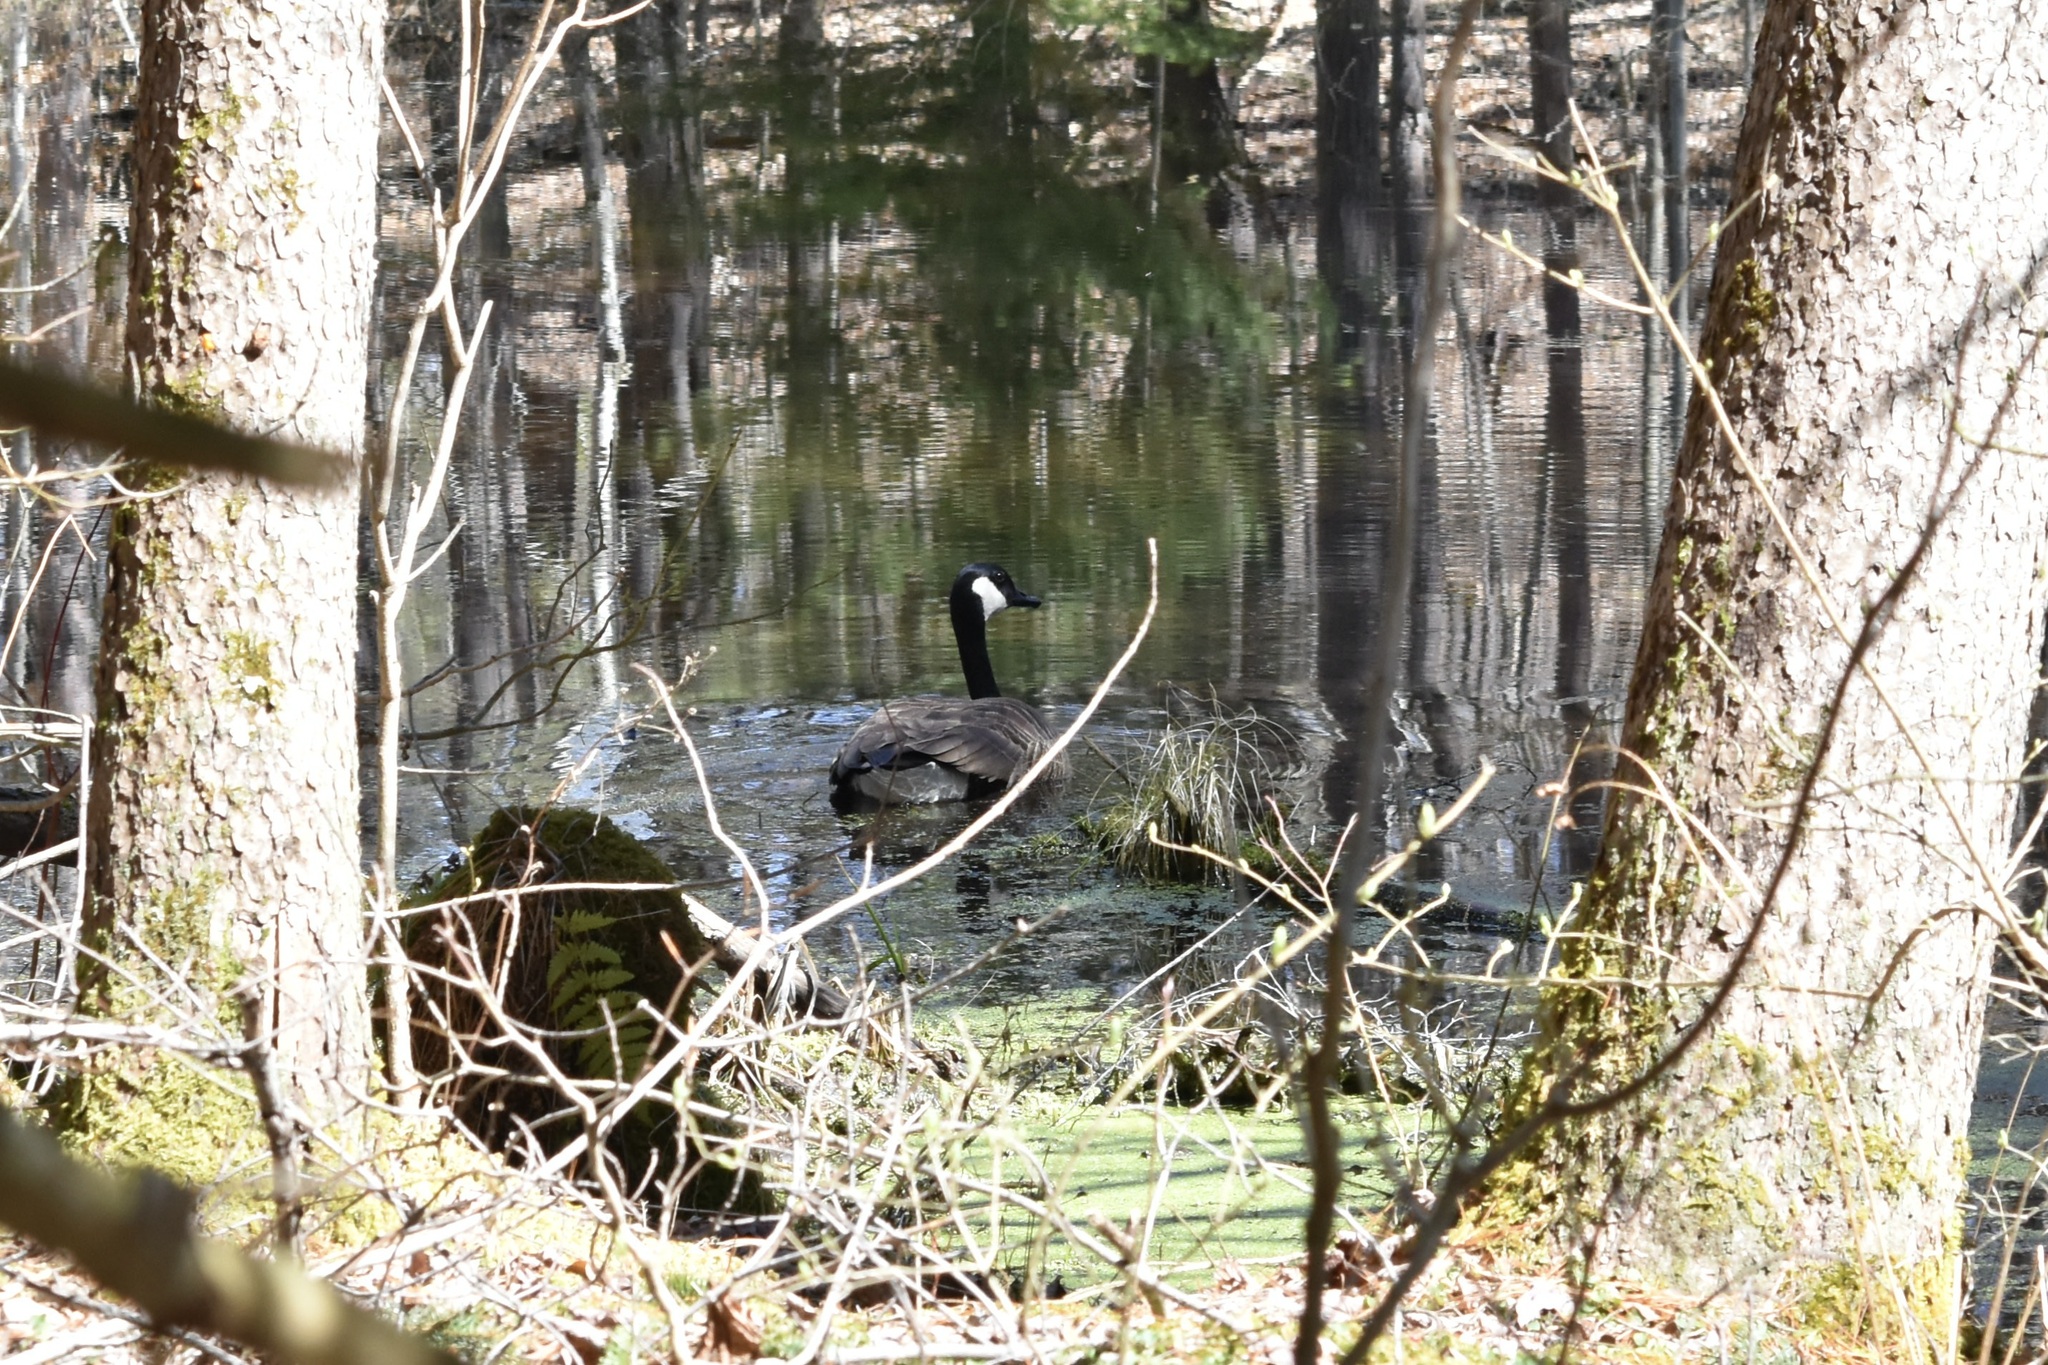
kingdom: Animalia
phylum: Chordata
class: Aves
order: Anseriformes
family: Anatidae
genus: Branta
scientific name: Branta canadensis
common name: Canada goose
